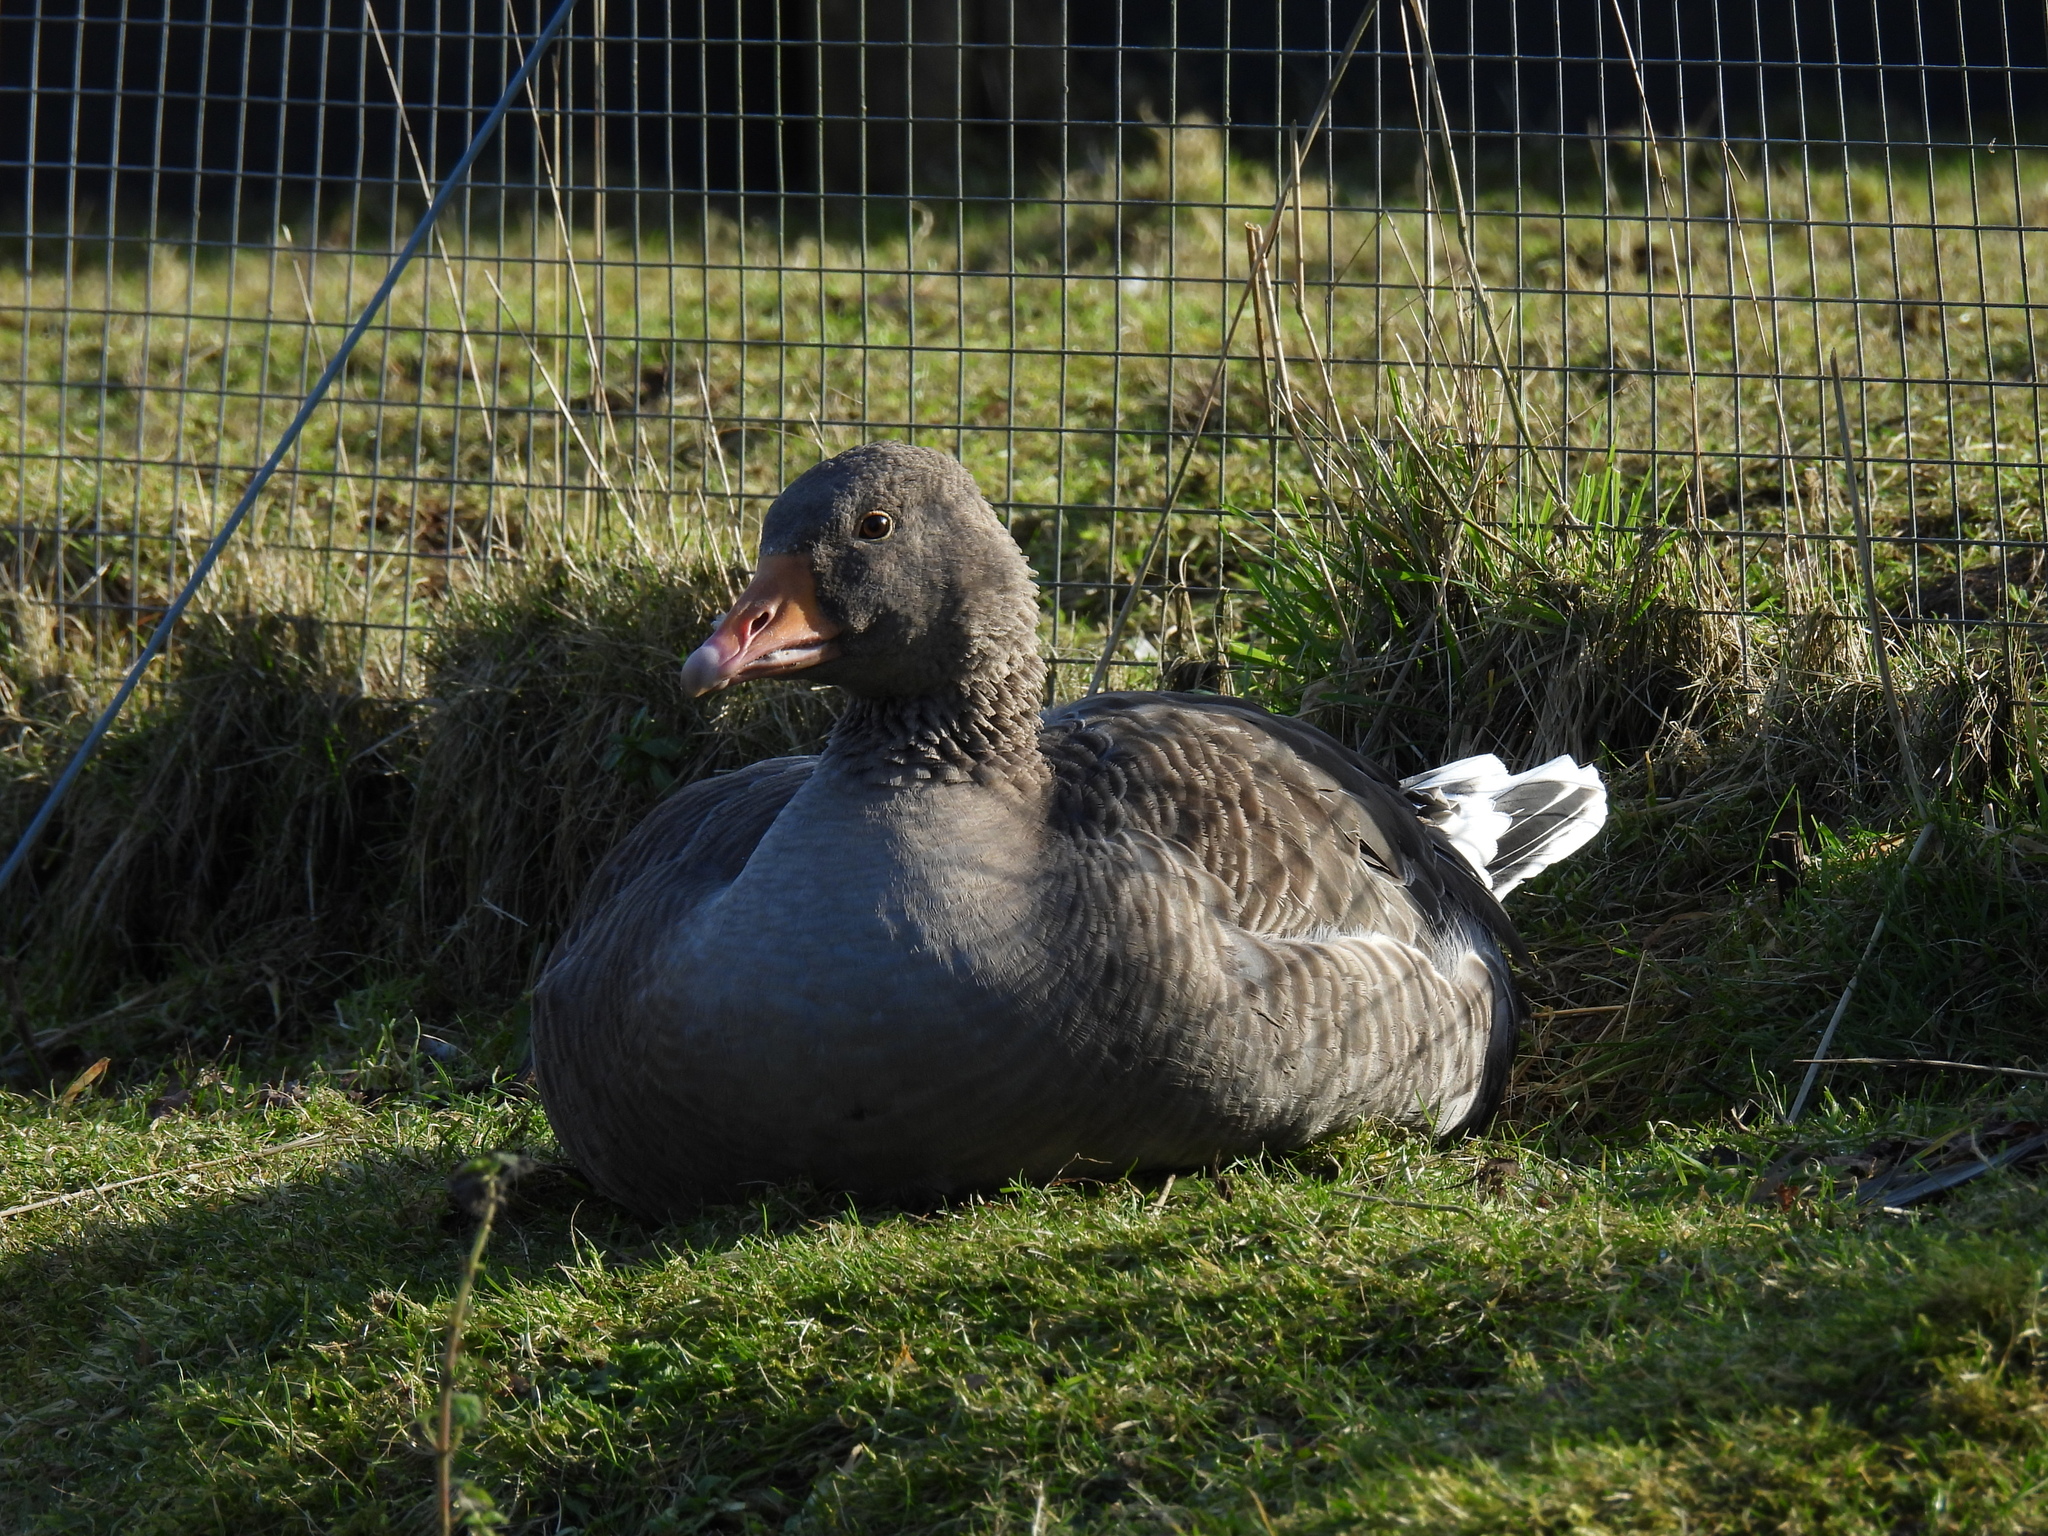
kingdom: Animalia
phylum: Chordata
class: Aves
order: Anseriformes
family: Anatidae
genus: Anser
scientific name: Anser anser
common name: Greylag goose
